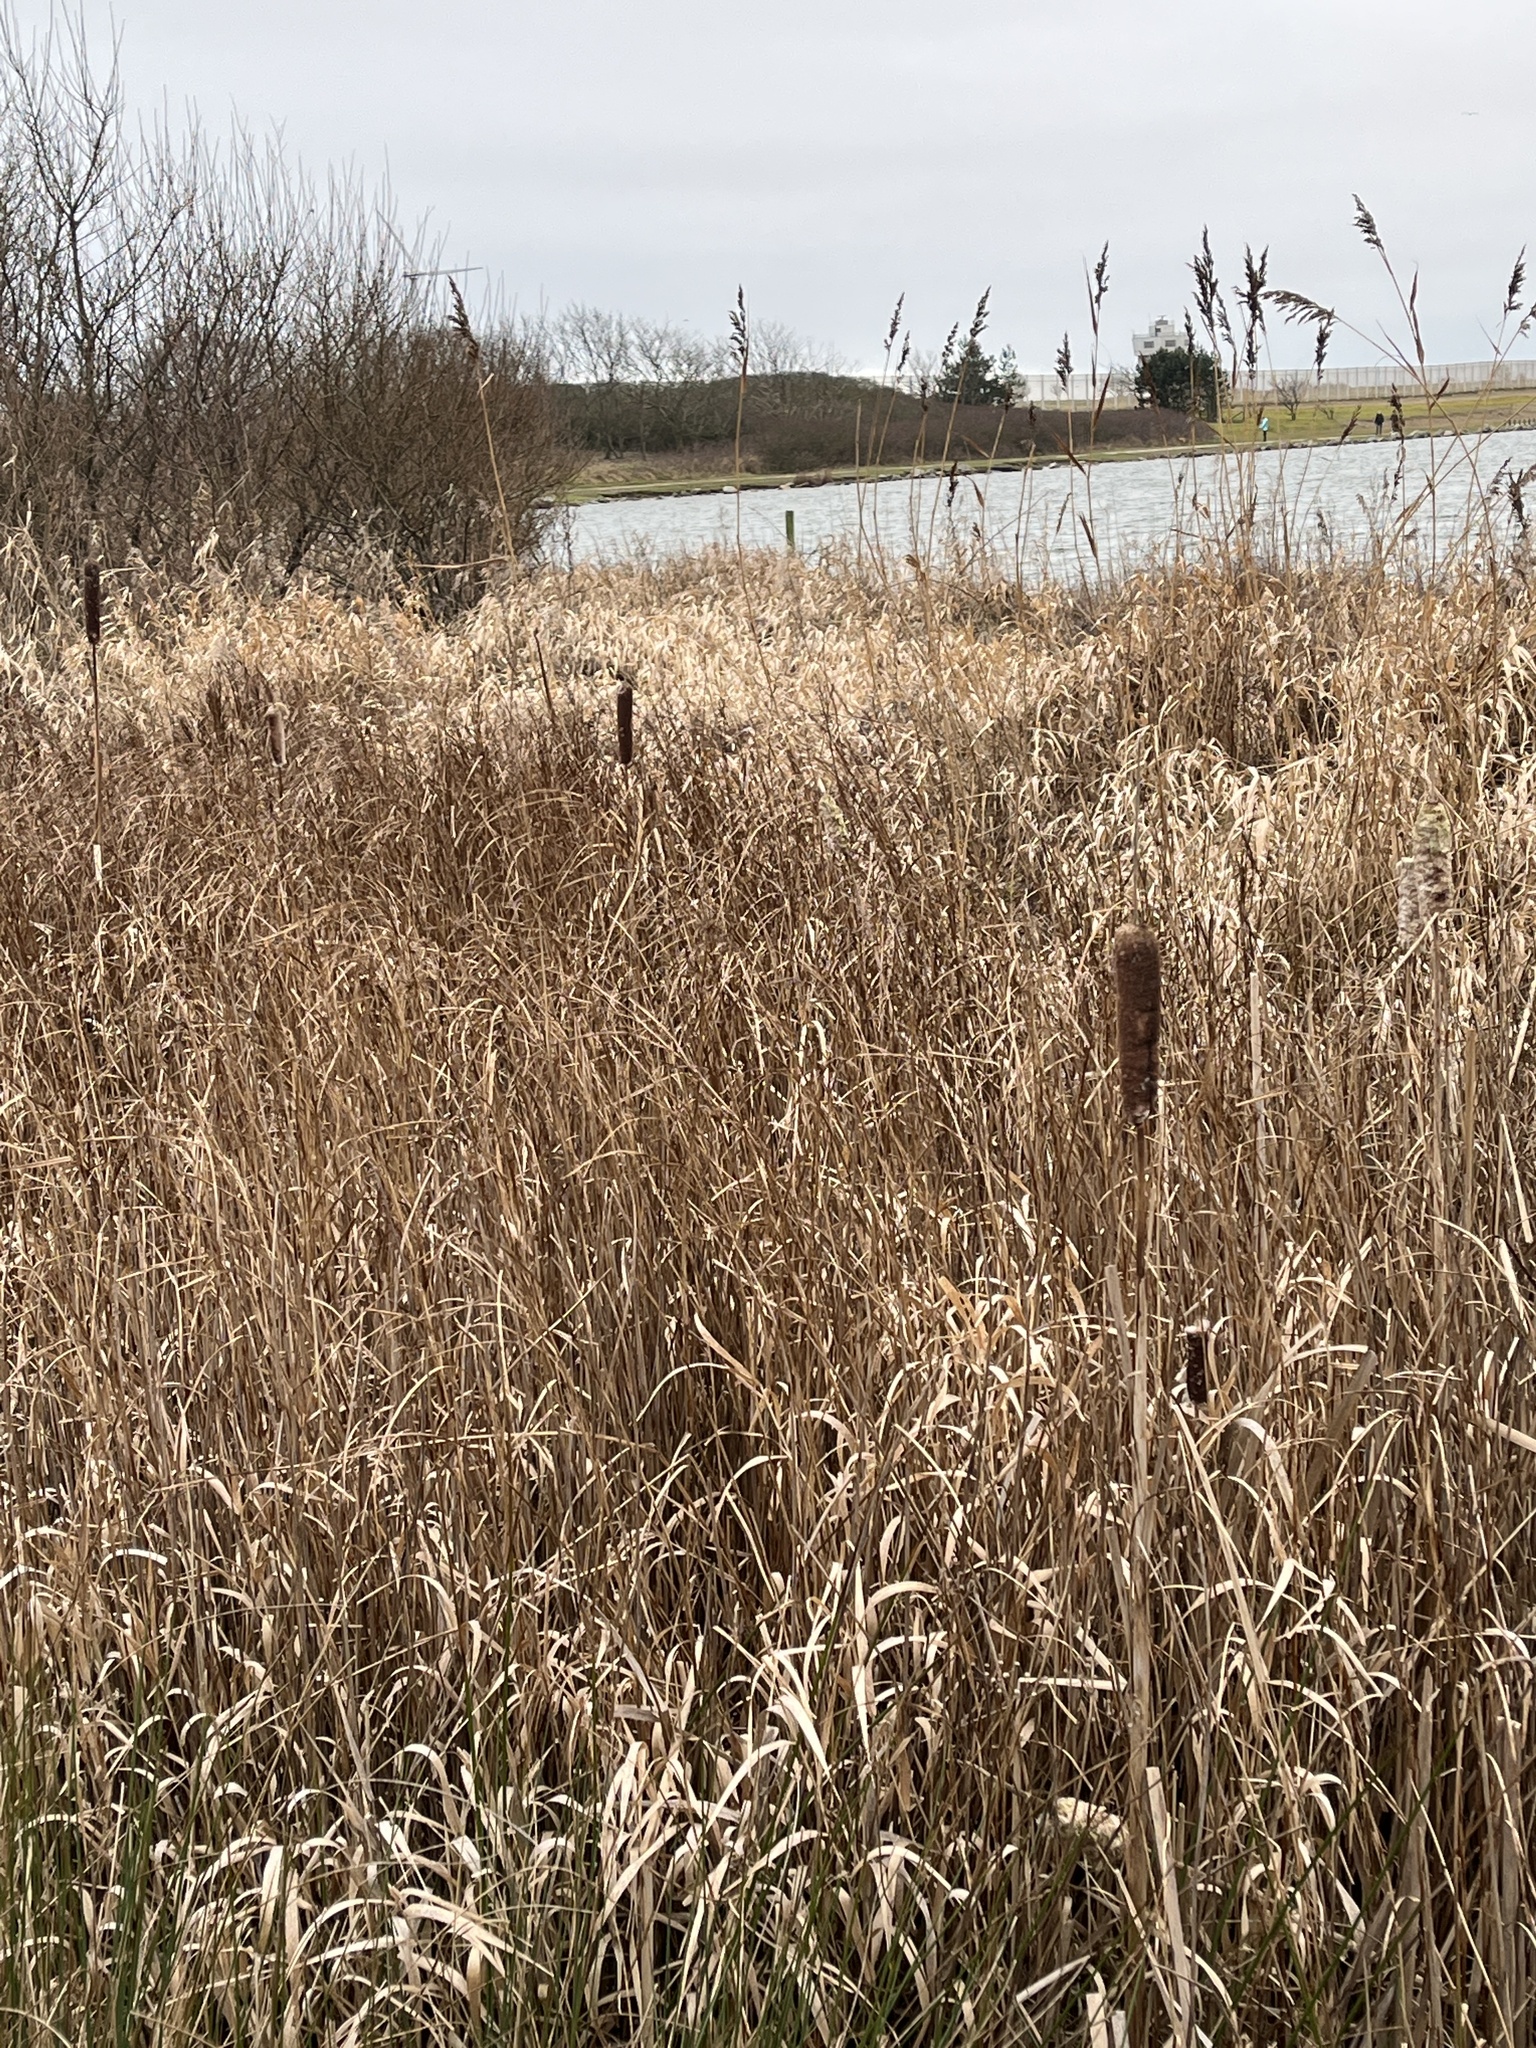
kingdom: Plantae
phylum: Tracheophyta
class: Liliopsida
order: Poales
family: Typhaceae
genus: Typha
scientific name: Typha latifolia
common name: Broadleaf cattail
